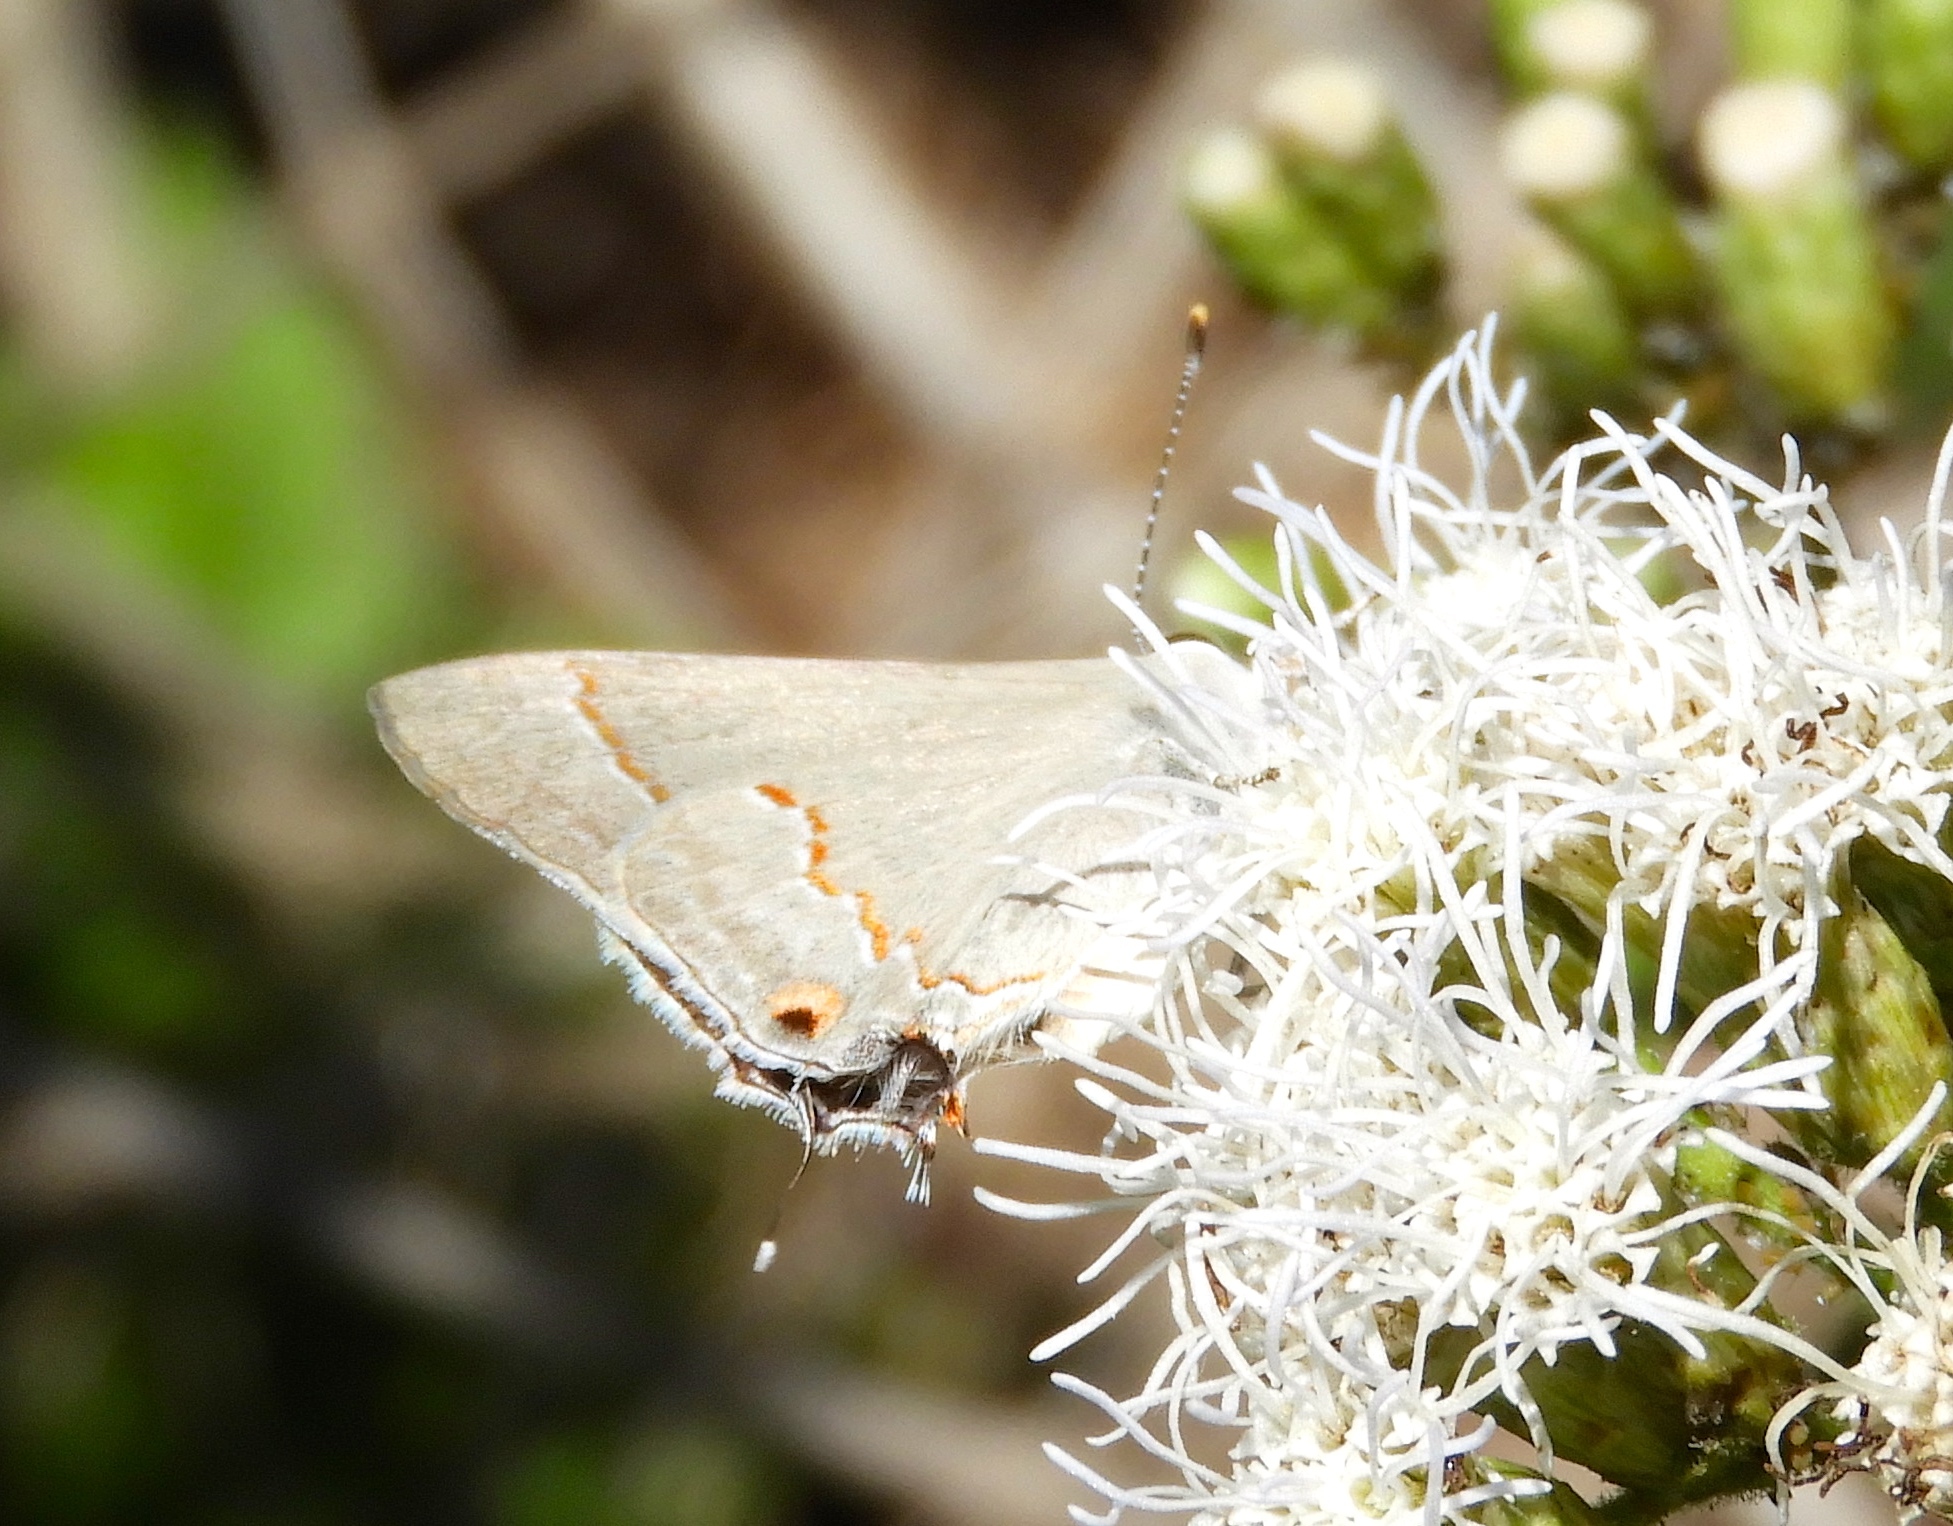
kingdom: Animalia
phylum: Arthropoda
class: Insecta
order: Lepidoptera
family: Lycaenidae
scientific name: Lycaenidae
